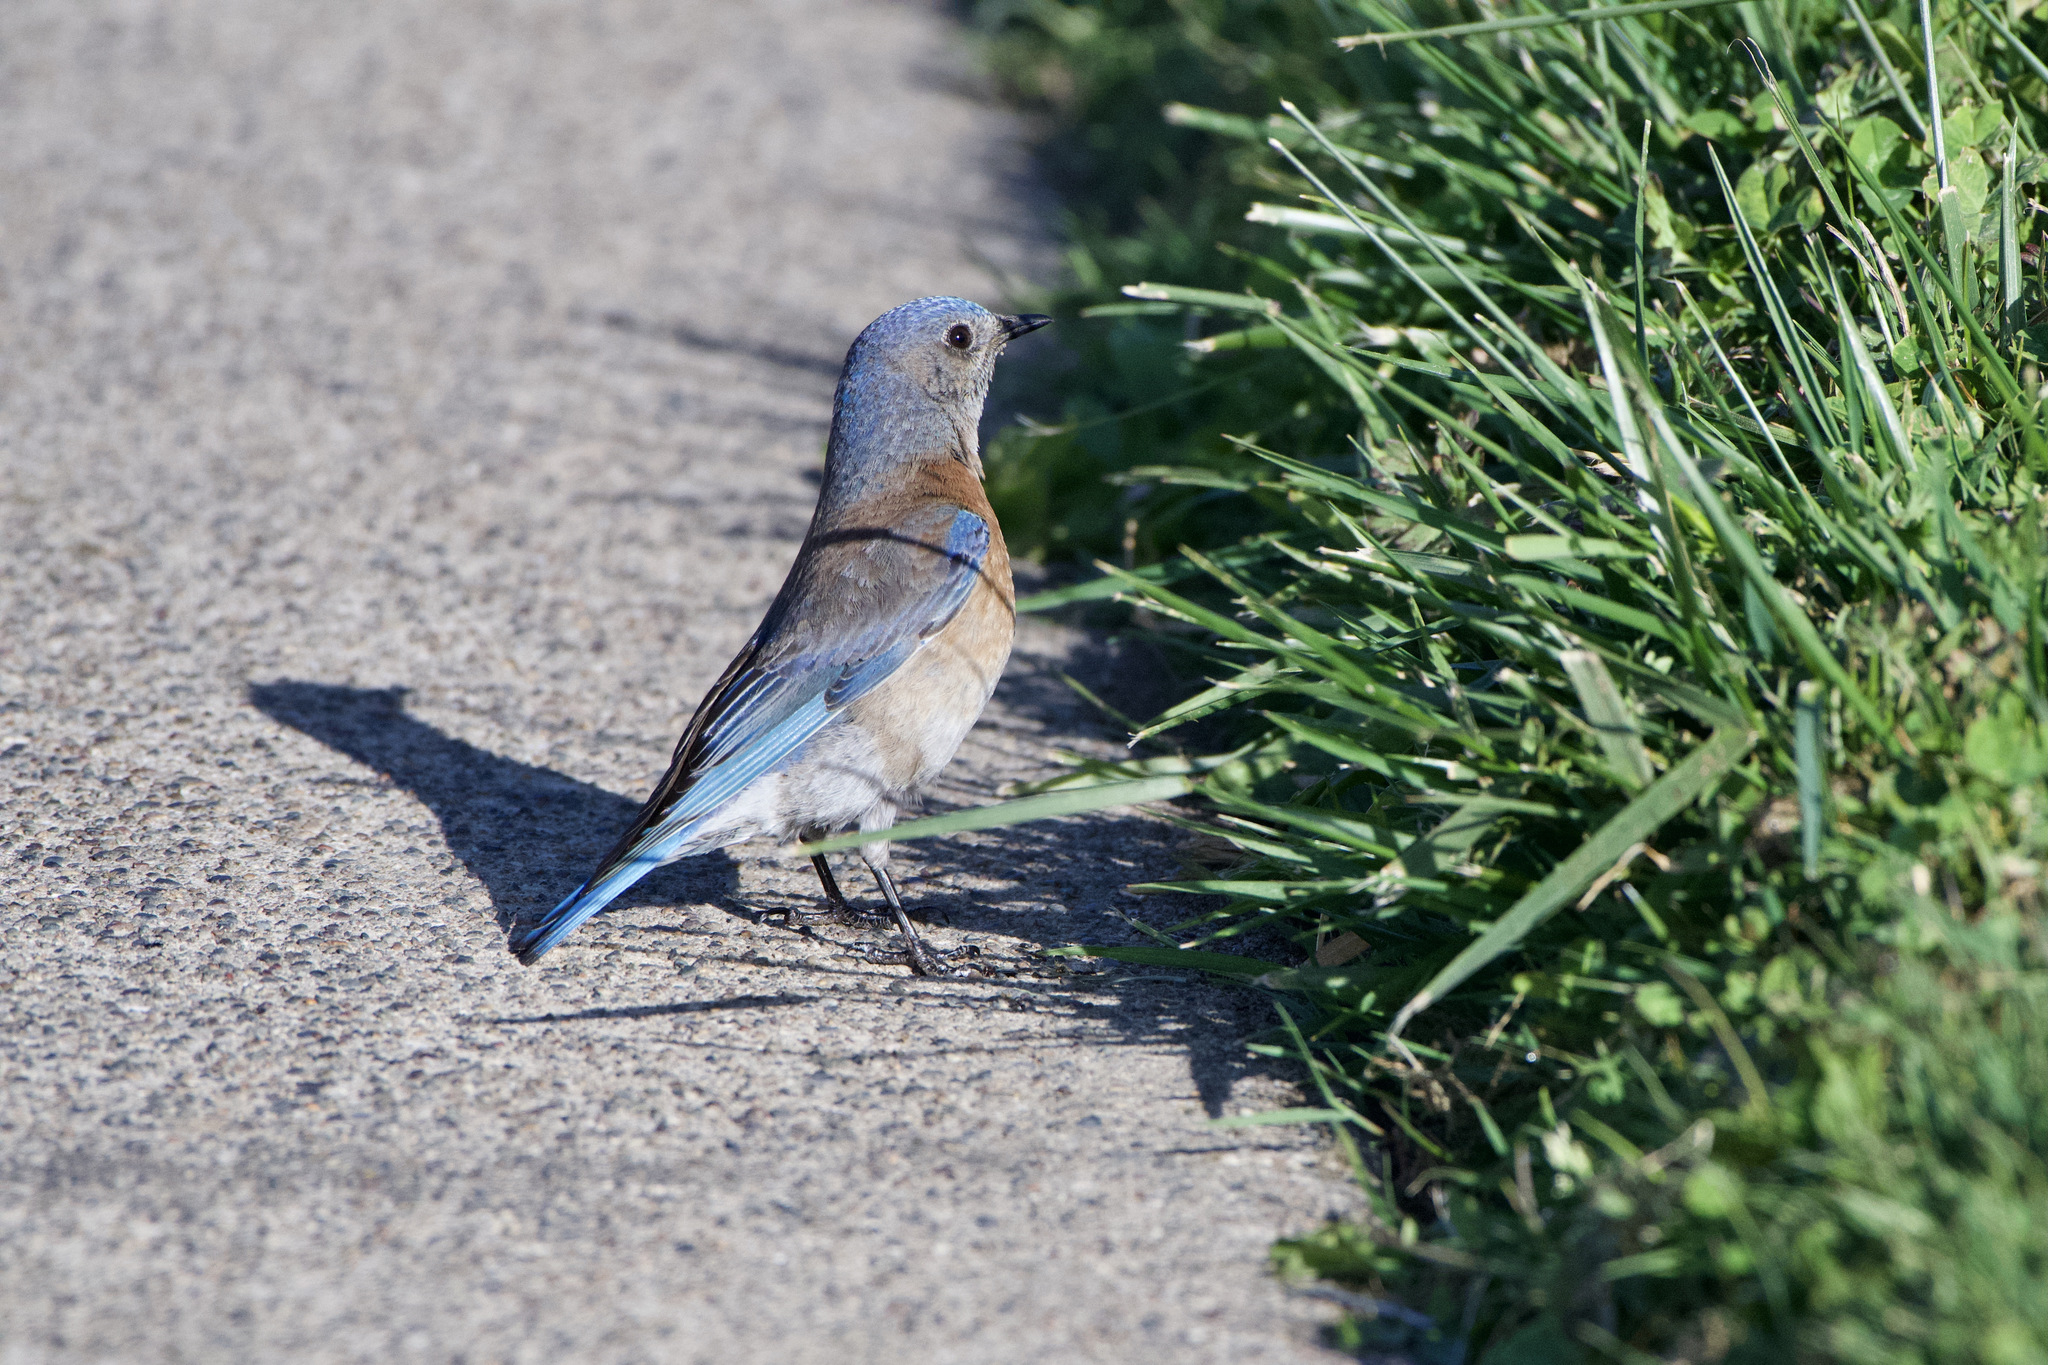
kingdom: Animalia
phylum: Chordata
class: Aves
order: Passeriformes
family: Turdidae
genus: Sialia
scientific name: Sialia mexicana
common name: Western bluebird
